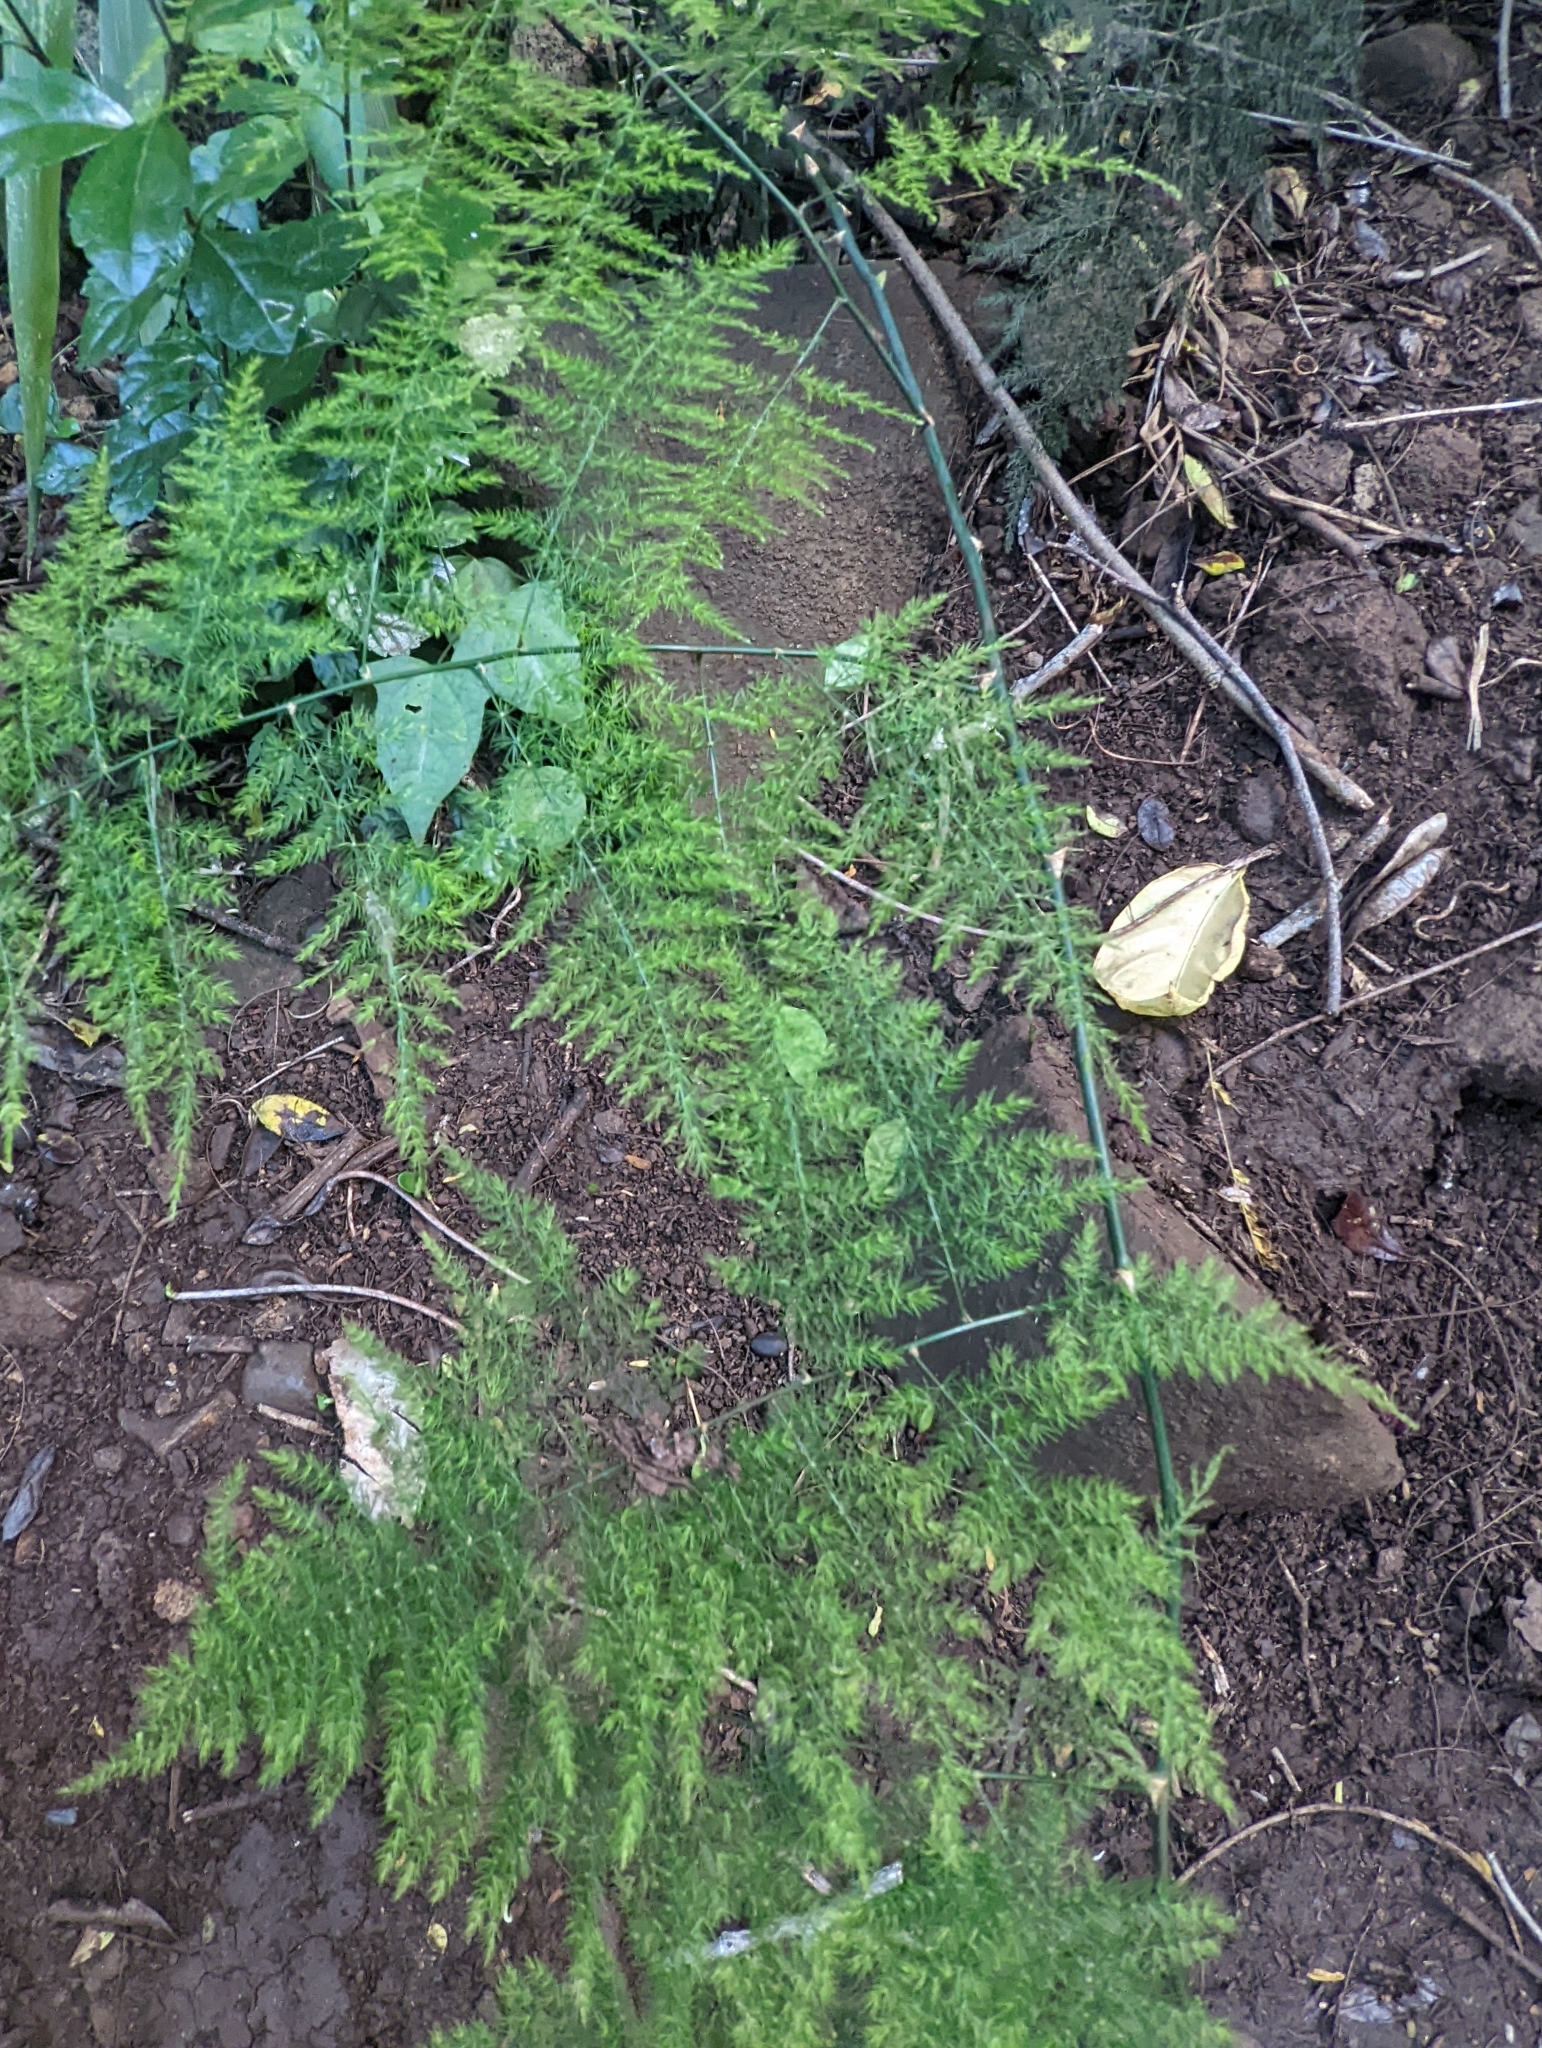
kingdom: Plantae
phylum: Tracheophyta
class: Liliopsida
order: Asparagales
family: Asparagaceae
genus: Asparagus
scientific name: Asparagus setaceus
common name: Common asparagus fern
